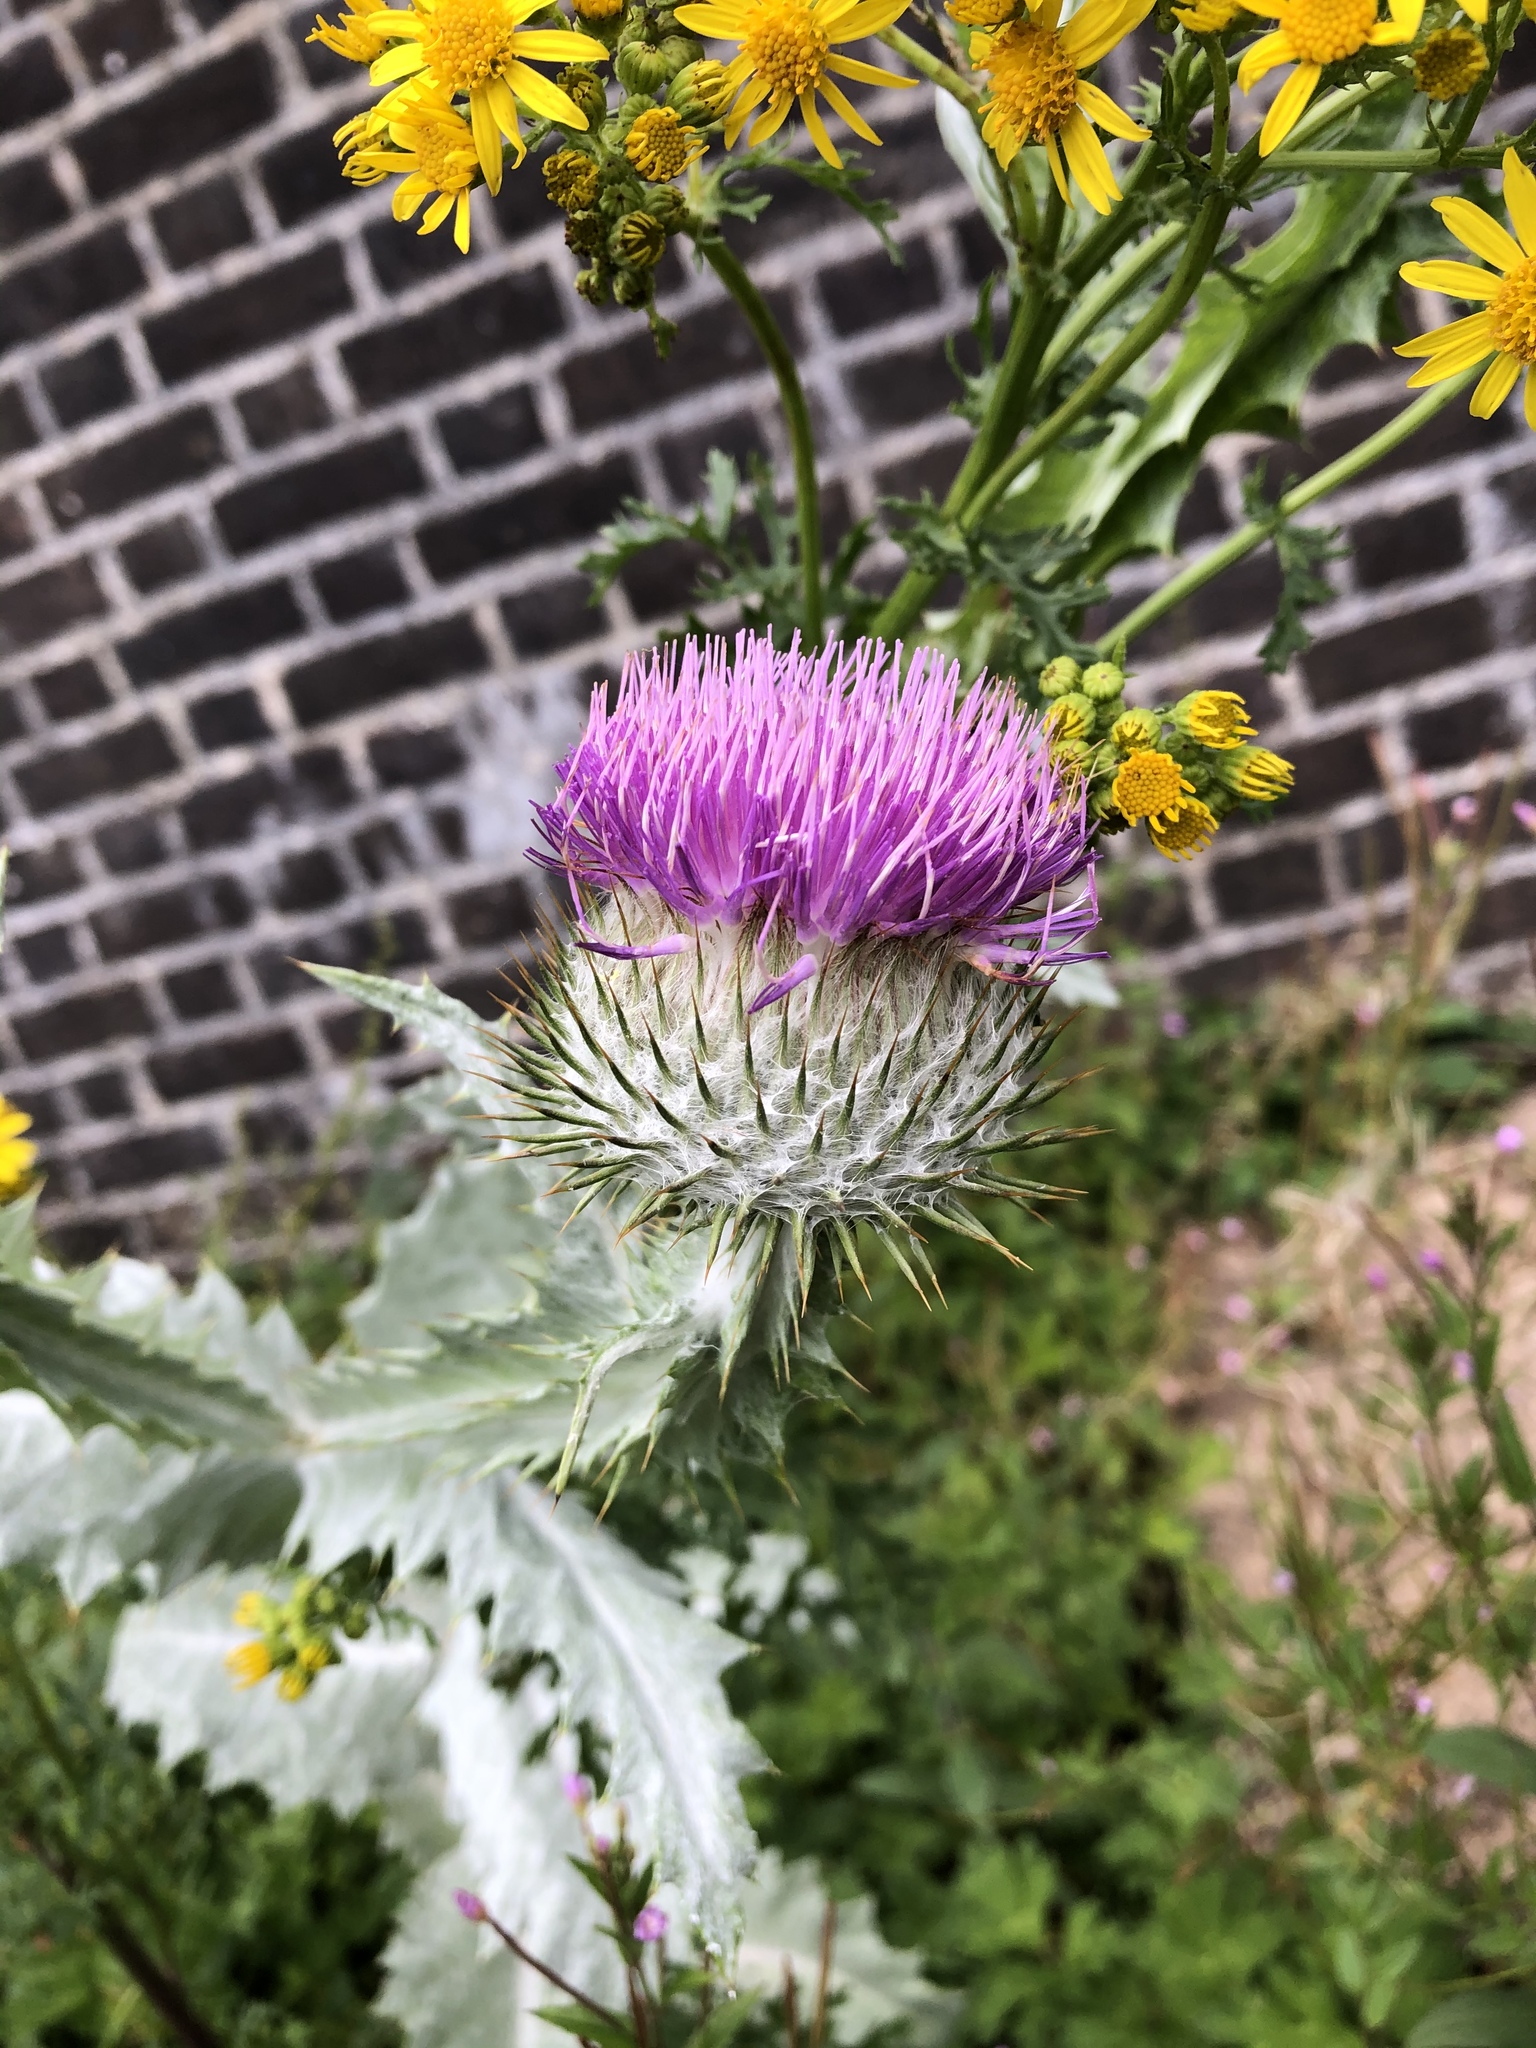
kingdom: Plantae
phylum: Tracheophyta
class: Magnoliopsida
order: Asterales
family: Asteraceae
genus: Onopordum
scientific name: Onopordum acanthium
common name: Scotch thistle
